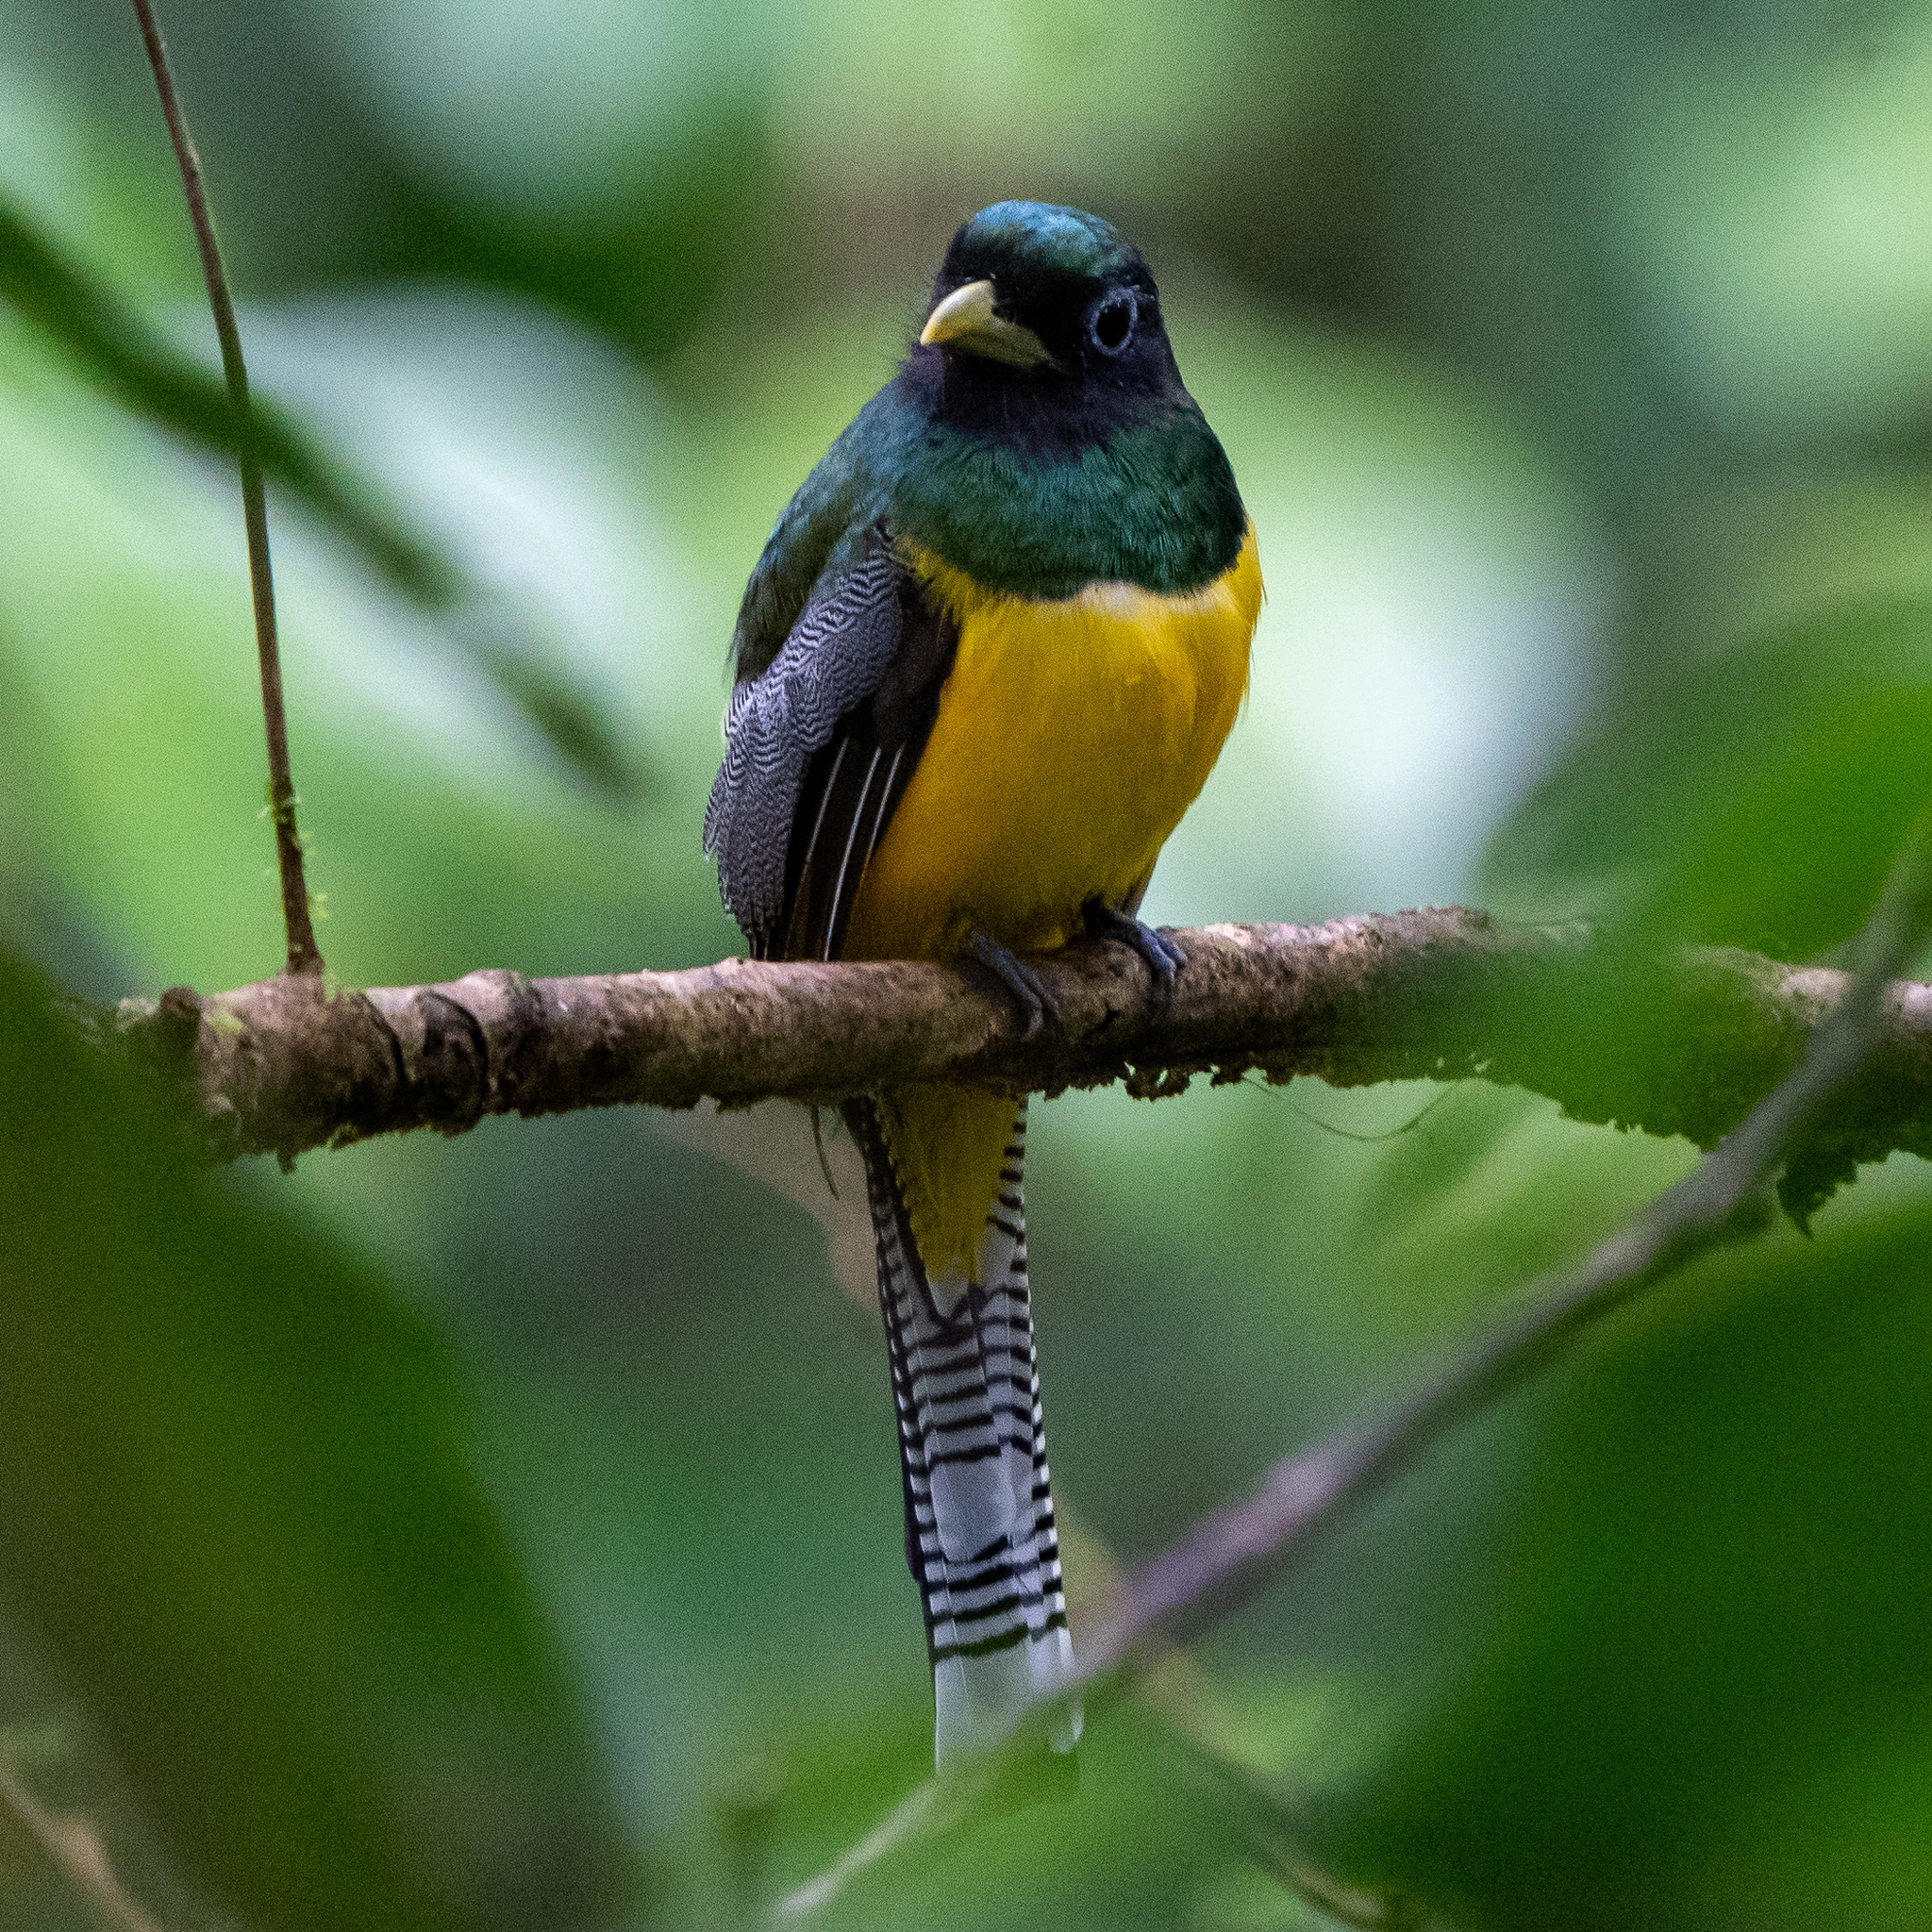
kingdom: Animalia
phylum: Chordata
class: Aves
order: Trogoniformes
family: Trogonidae
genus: Trogon
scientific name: Trogon rufus
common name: Black-throated trogon
